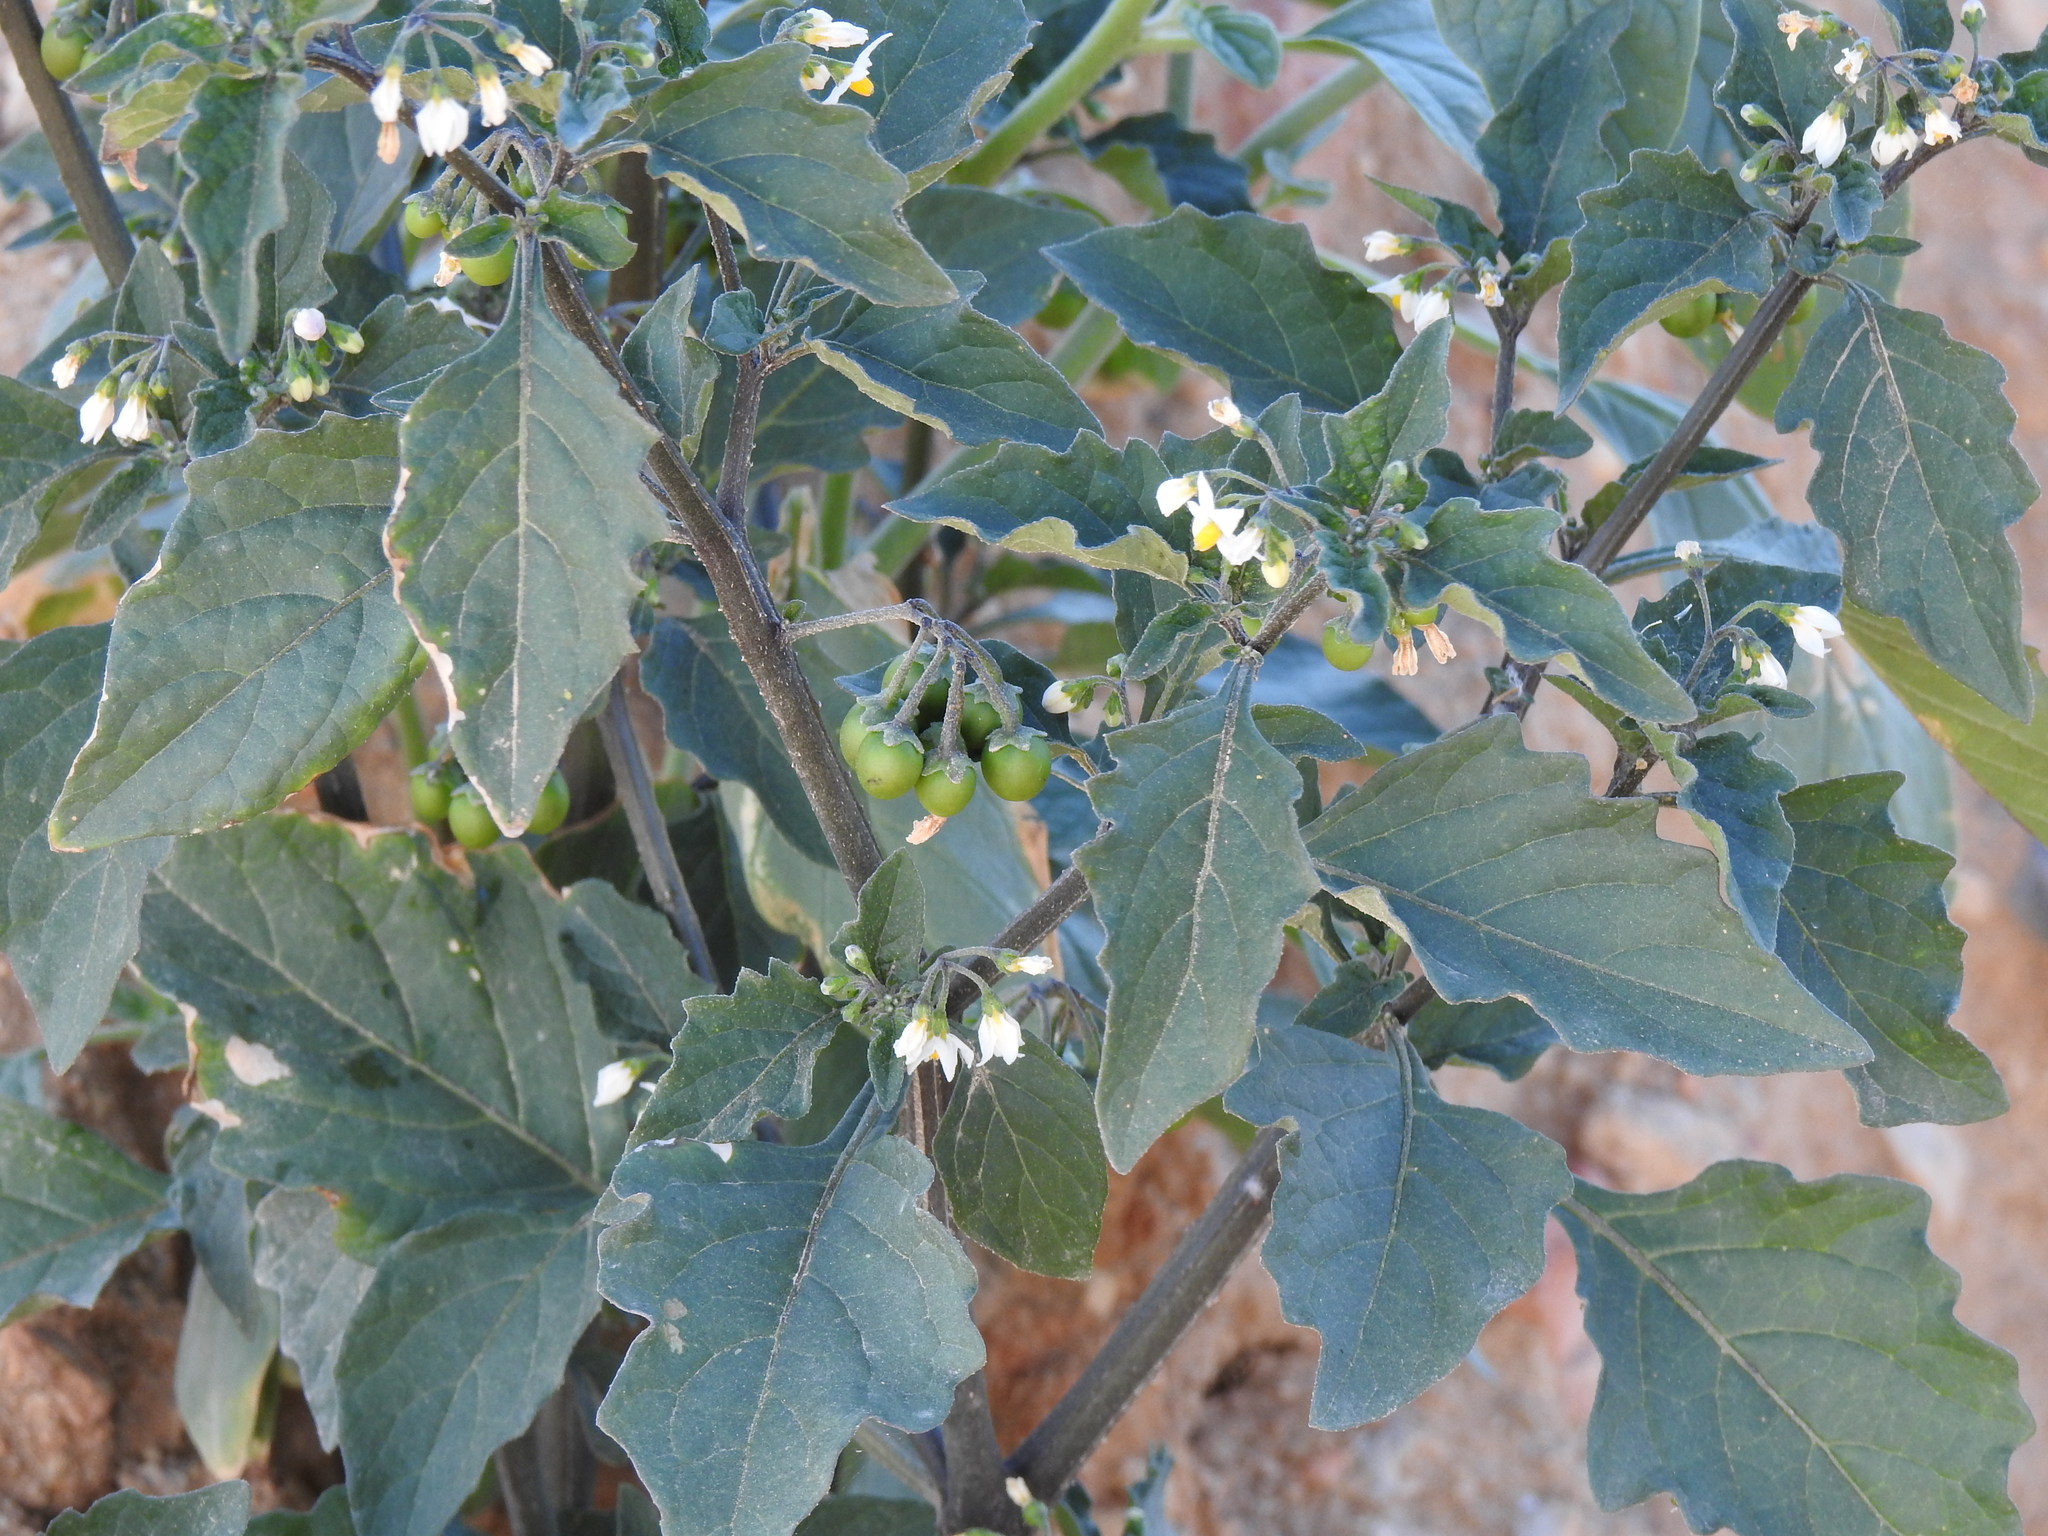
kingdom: Plantae
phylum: Tracheophyta
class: Magnoliopsida
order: Solanales
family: Solanaceae
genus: Solanum
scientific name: Solanum nigrum
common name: Black nightshade
